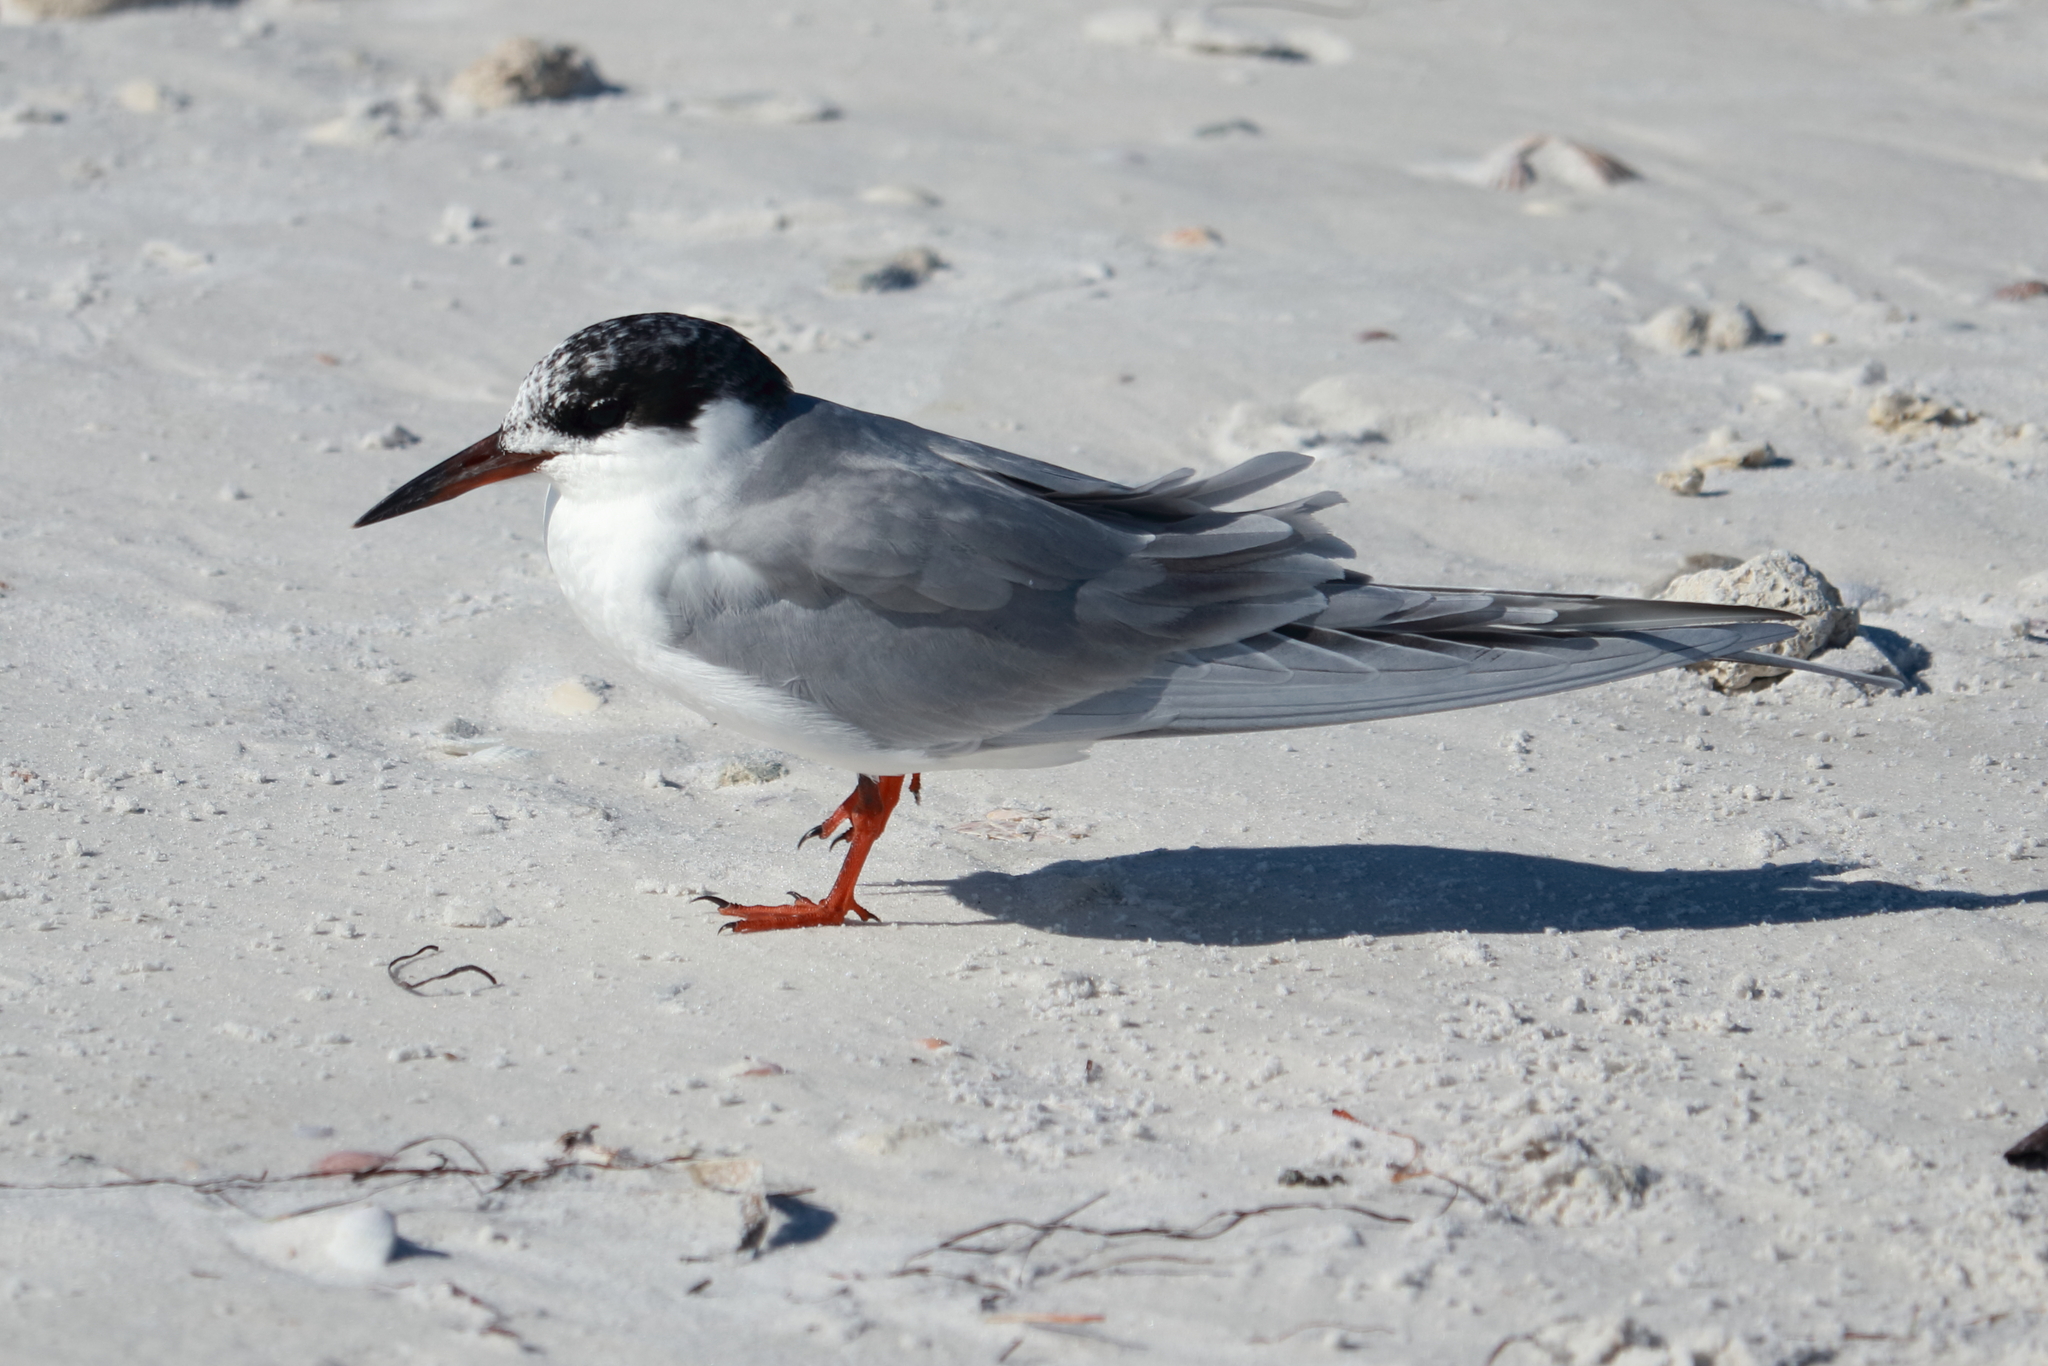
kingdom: Animalia
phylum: Chordata
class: Aves
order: Charadriiformes
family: Laridae
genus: Sterna
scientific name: Sterna forsteri
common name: Forster's tern
